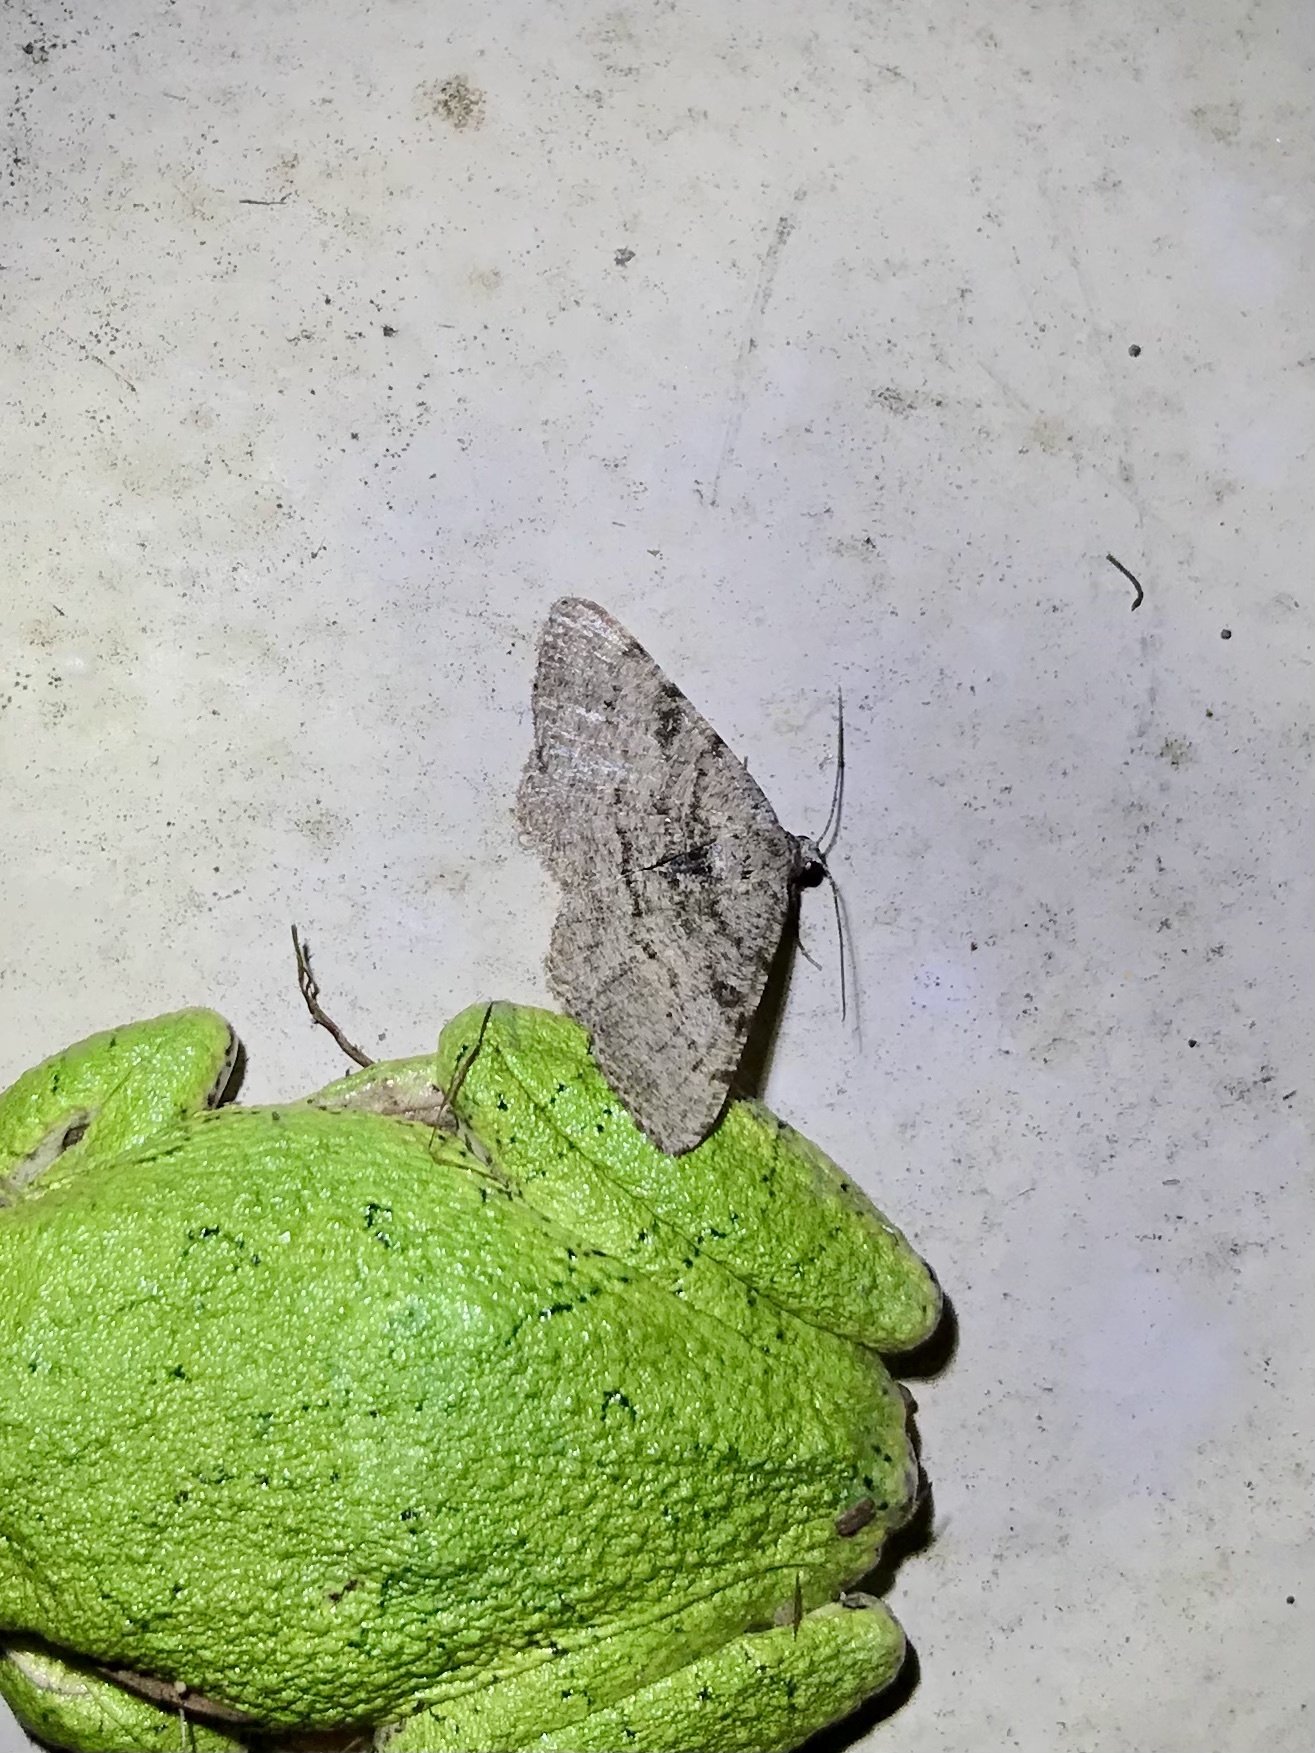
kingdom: Animalia
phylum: Arthropoda
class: Insecta
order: Lepidoptera
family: Geometridae
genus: Digrammia
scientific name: Digrammia gnophosaria
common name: Hollow-spotted angle
